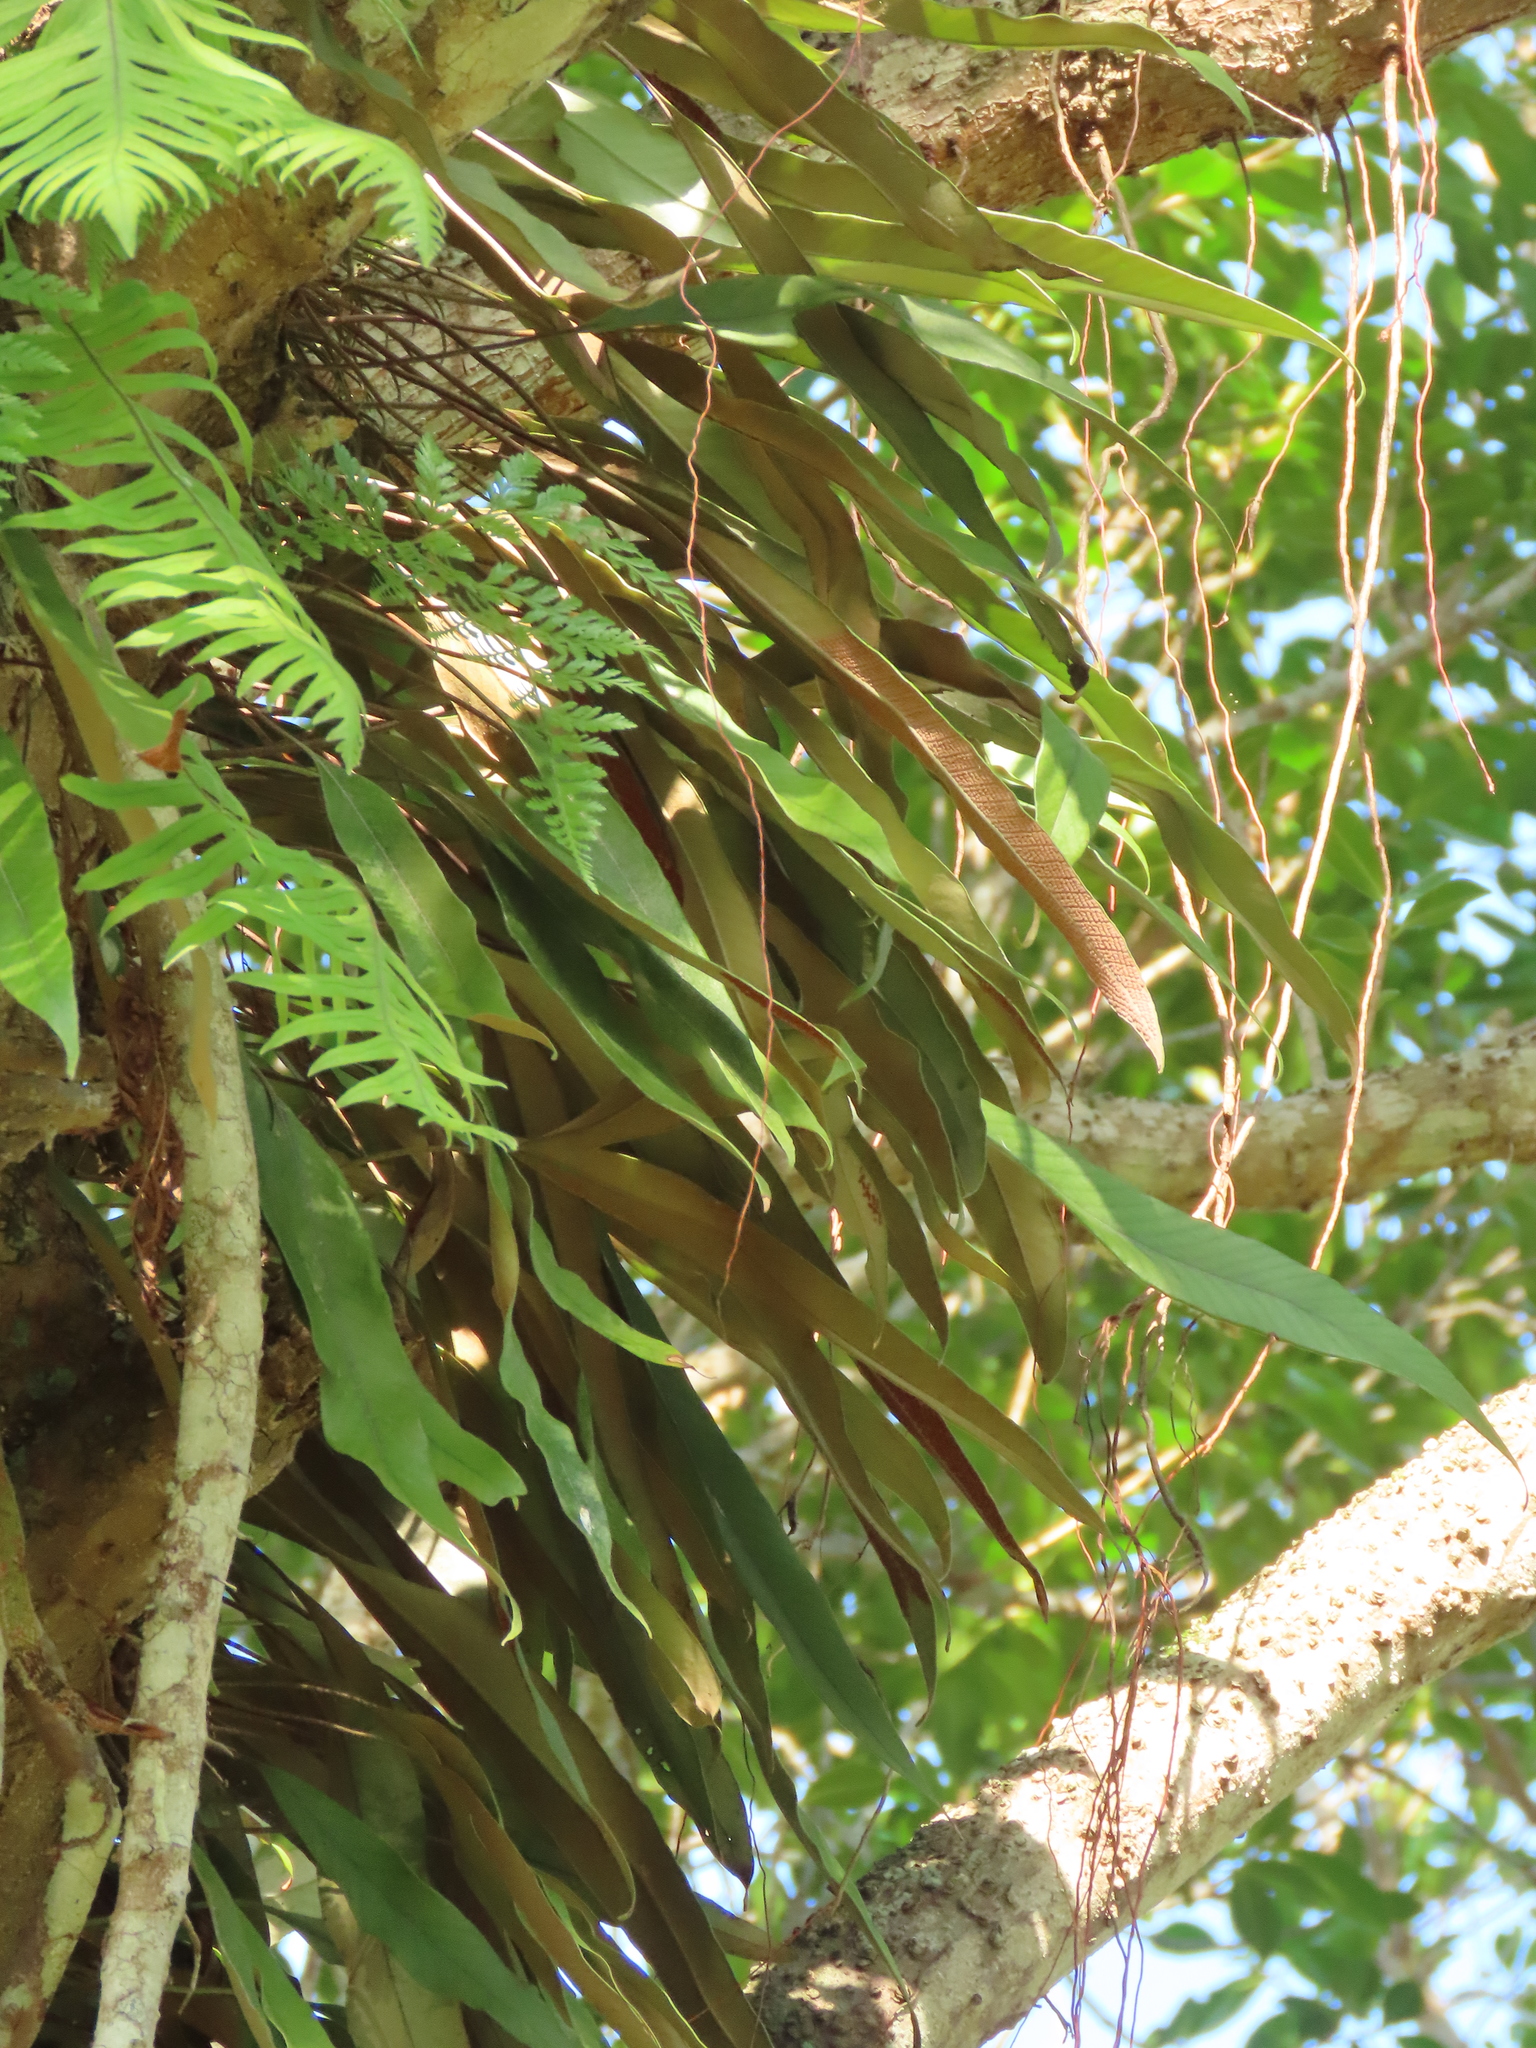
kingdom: Plantae
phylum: Tracheophyta
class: Polypodiopsida
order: Polypodiales
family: Polypodiaceae
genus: Pyrrosia
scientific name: Pyrrosia lingua
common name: Felt fern
